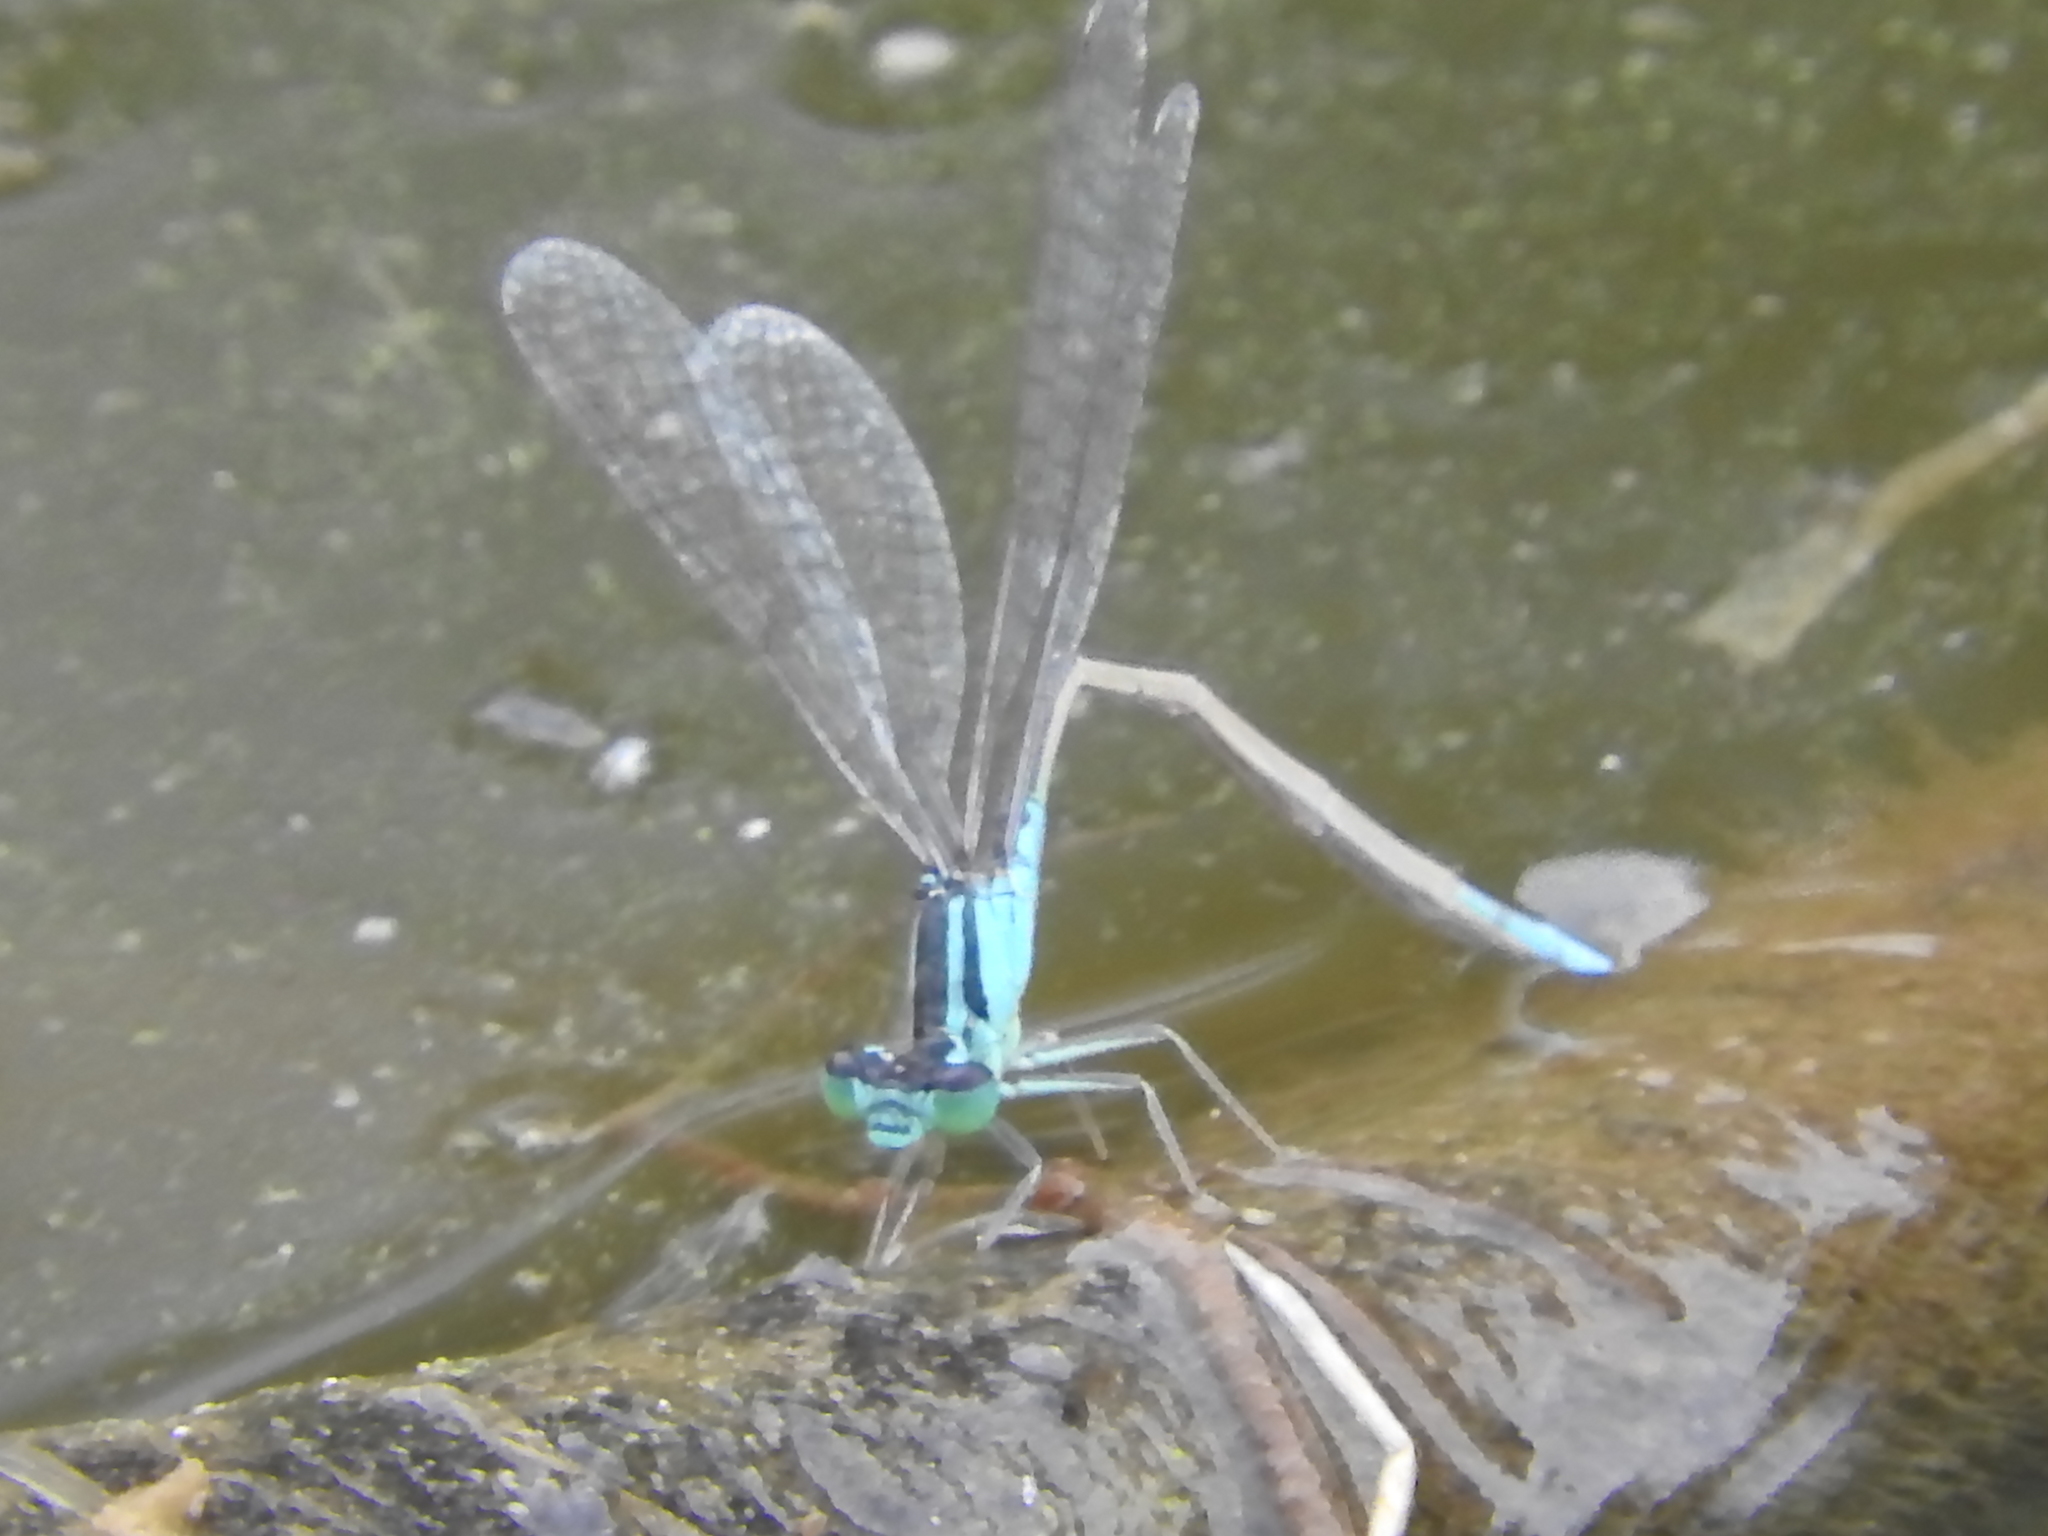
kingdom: Animalia
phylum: Arthropoda
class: Insecta
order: Odonata
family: Coenagrionidae
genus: Ischnura
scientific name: Ischnura elegans
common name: Blue-tailed damselfly
